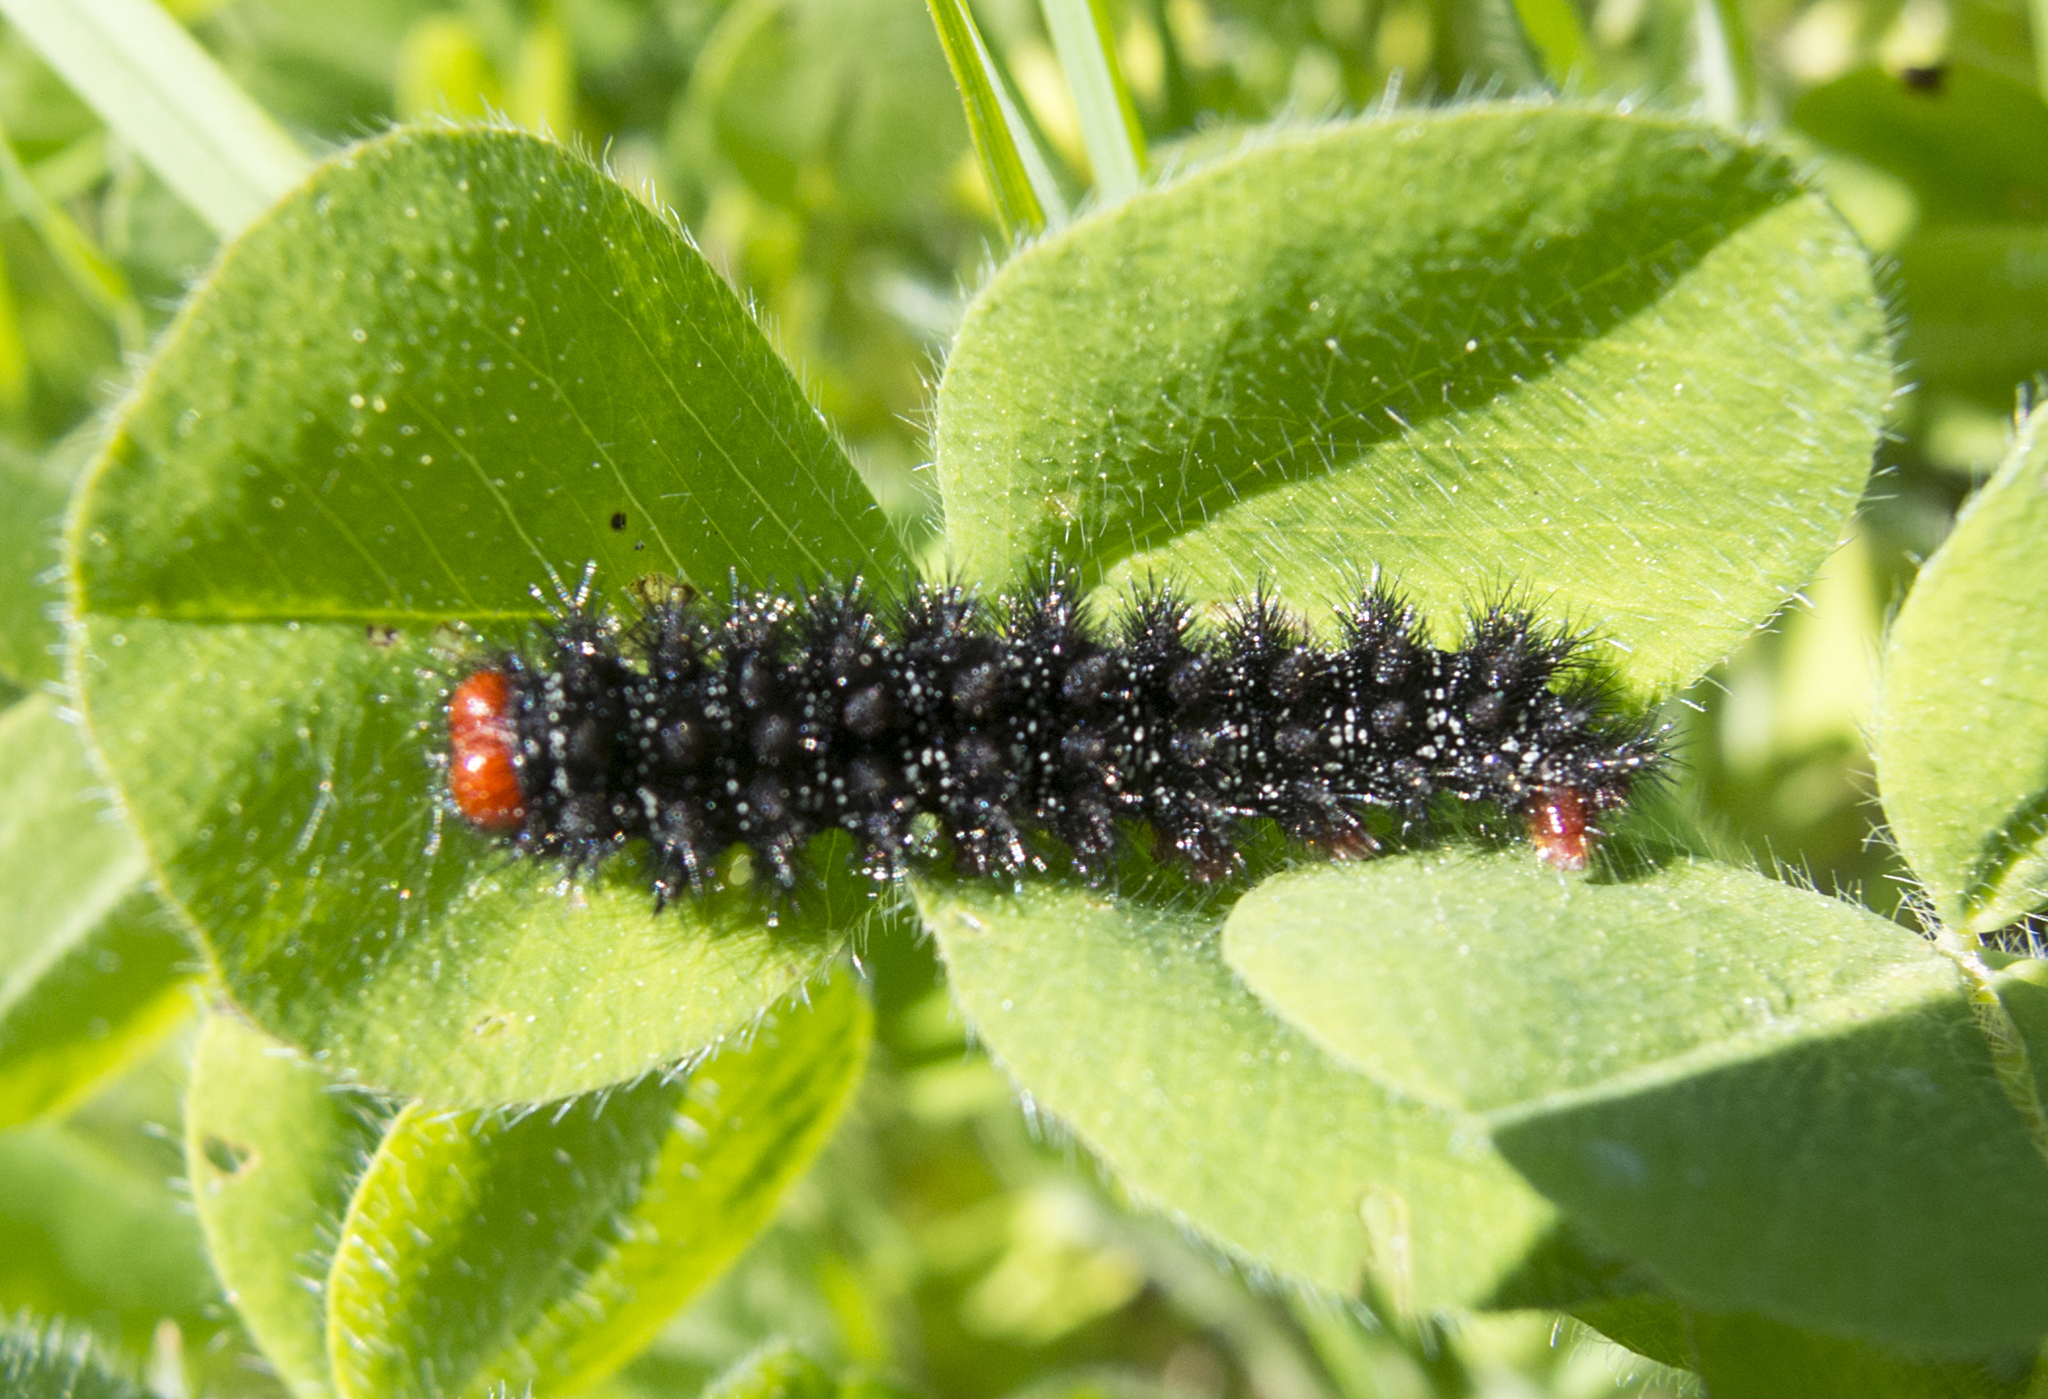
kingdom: Animalia
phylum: Arthropoda
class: Insecta
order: Lepidoptera
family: Nymphalidae
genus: Melitaea
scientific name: Melitaea cinxia
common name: Glanville fritillary
